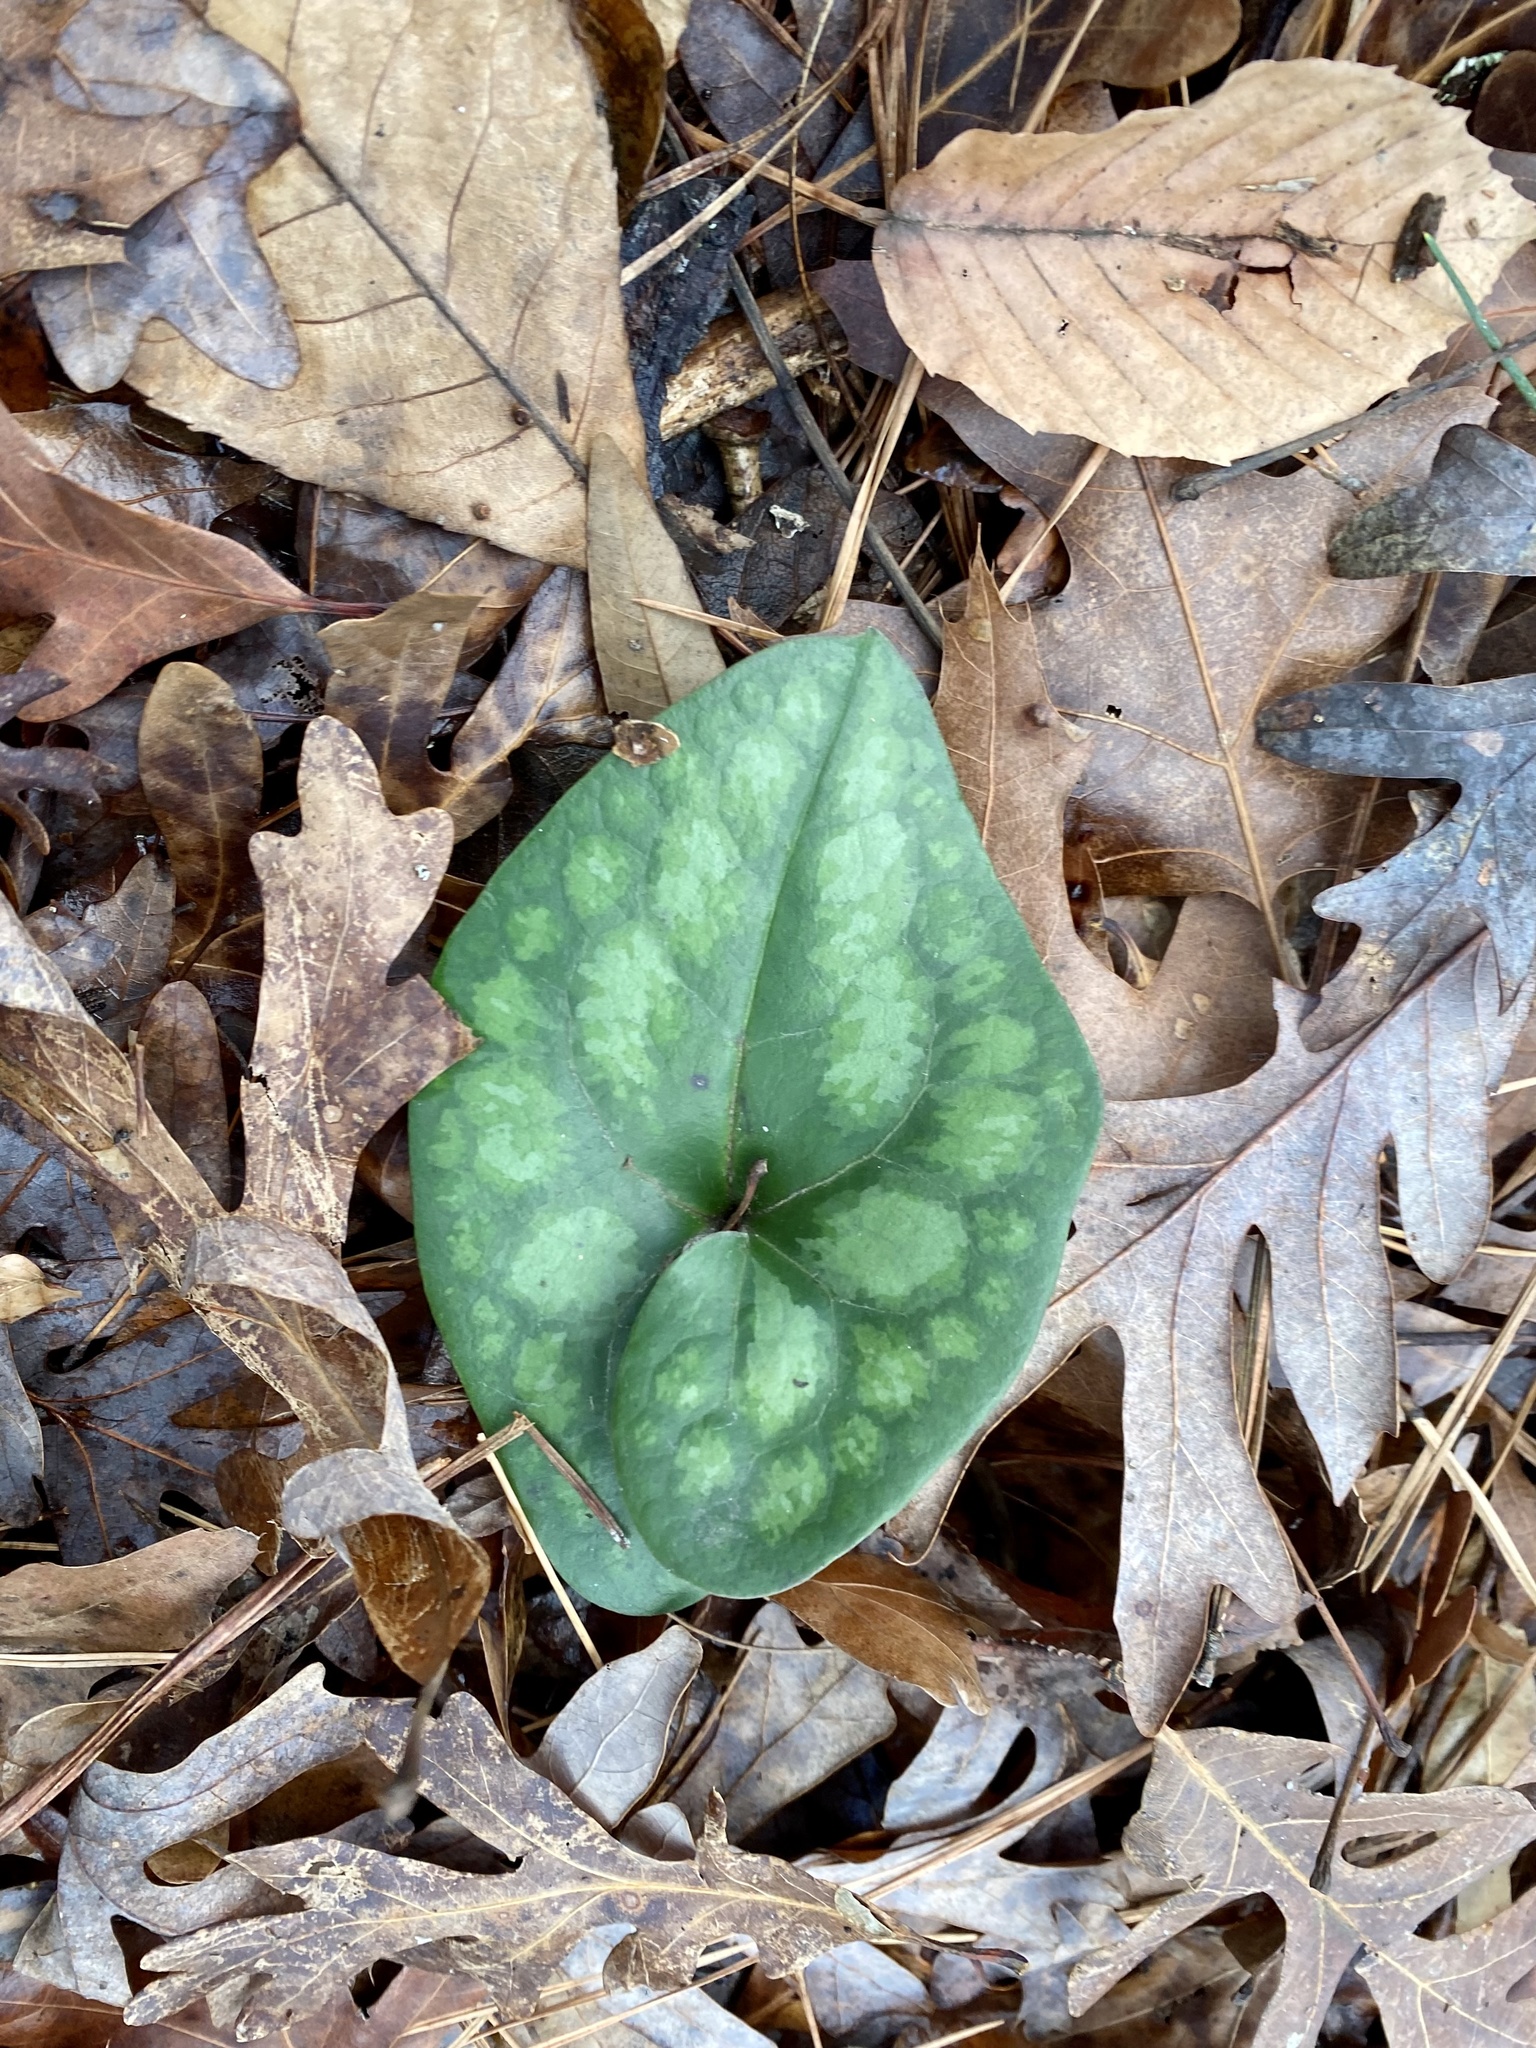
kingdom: Plantae
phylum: Tracheophyta
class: Magnoliopsida
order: Piperales
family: Aristolochiaceae
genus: Hexastylis
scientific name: Hexastylis arifolia
